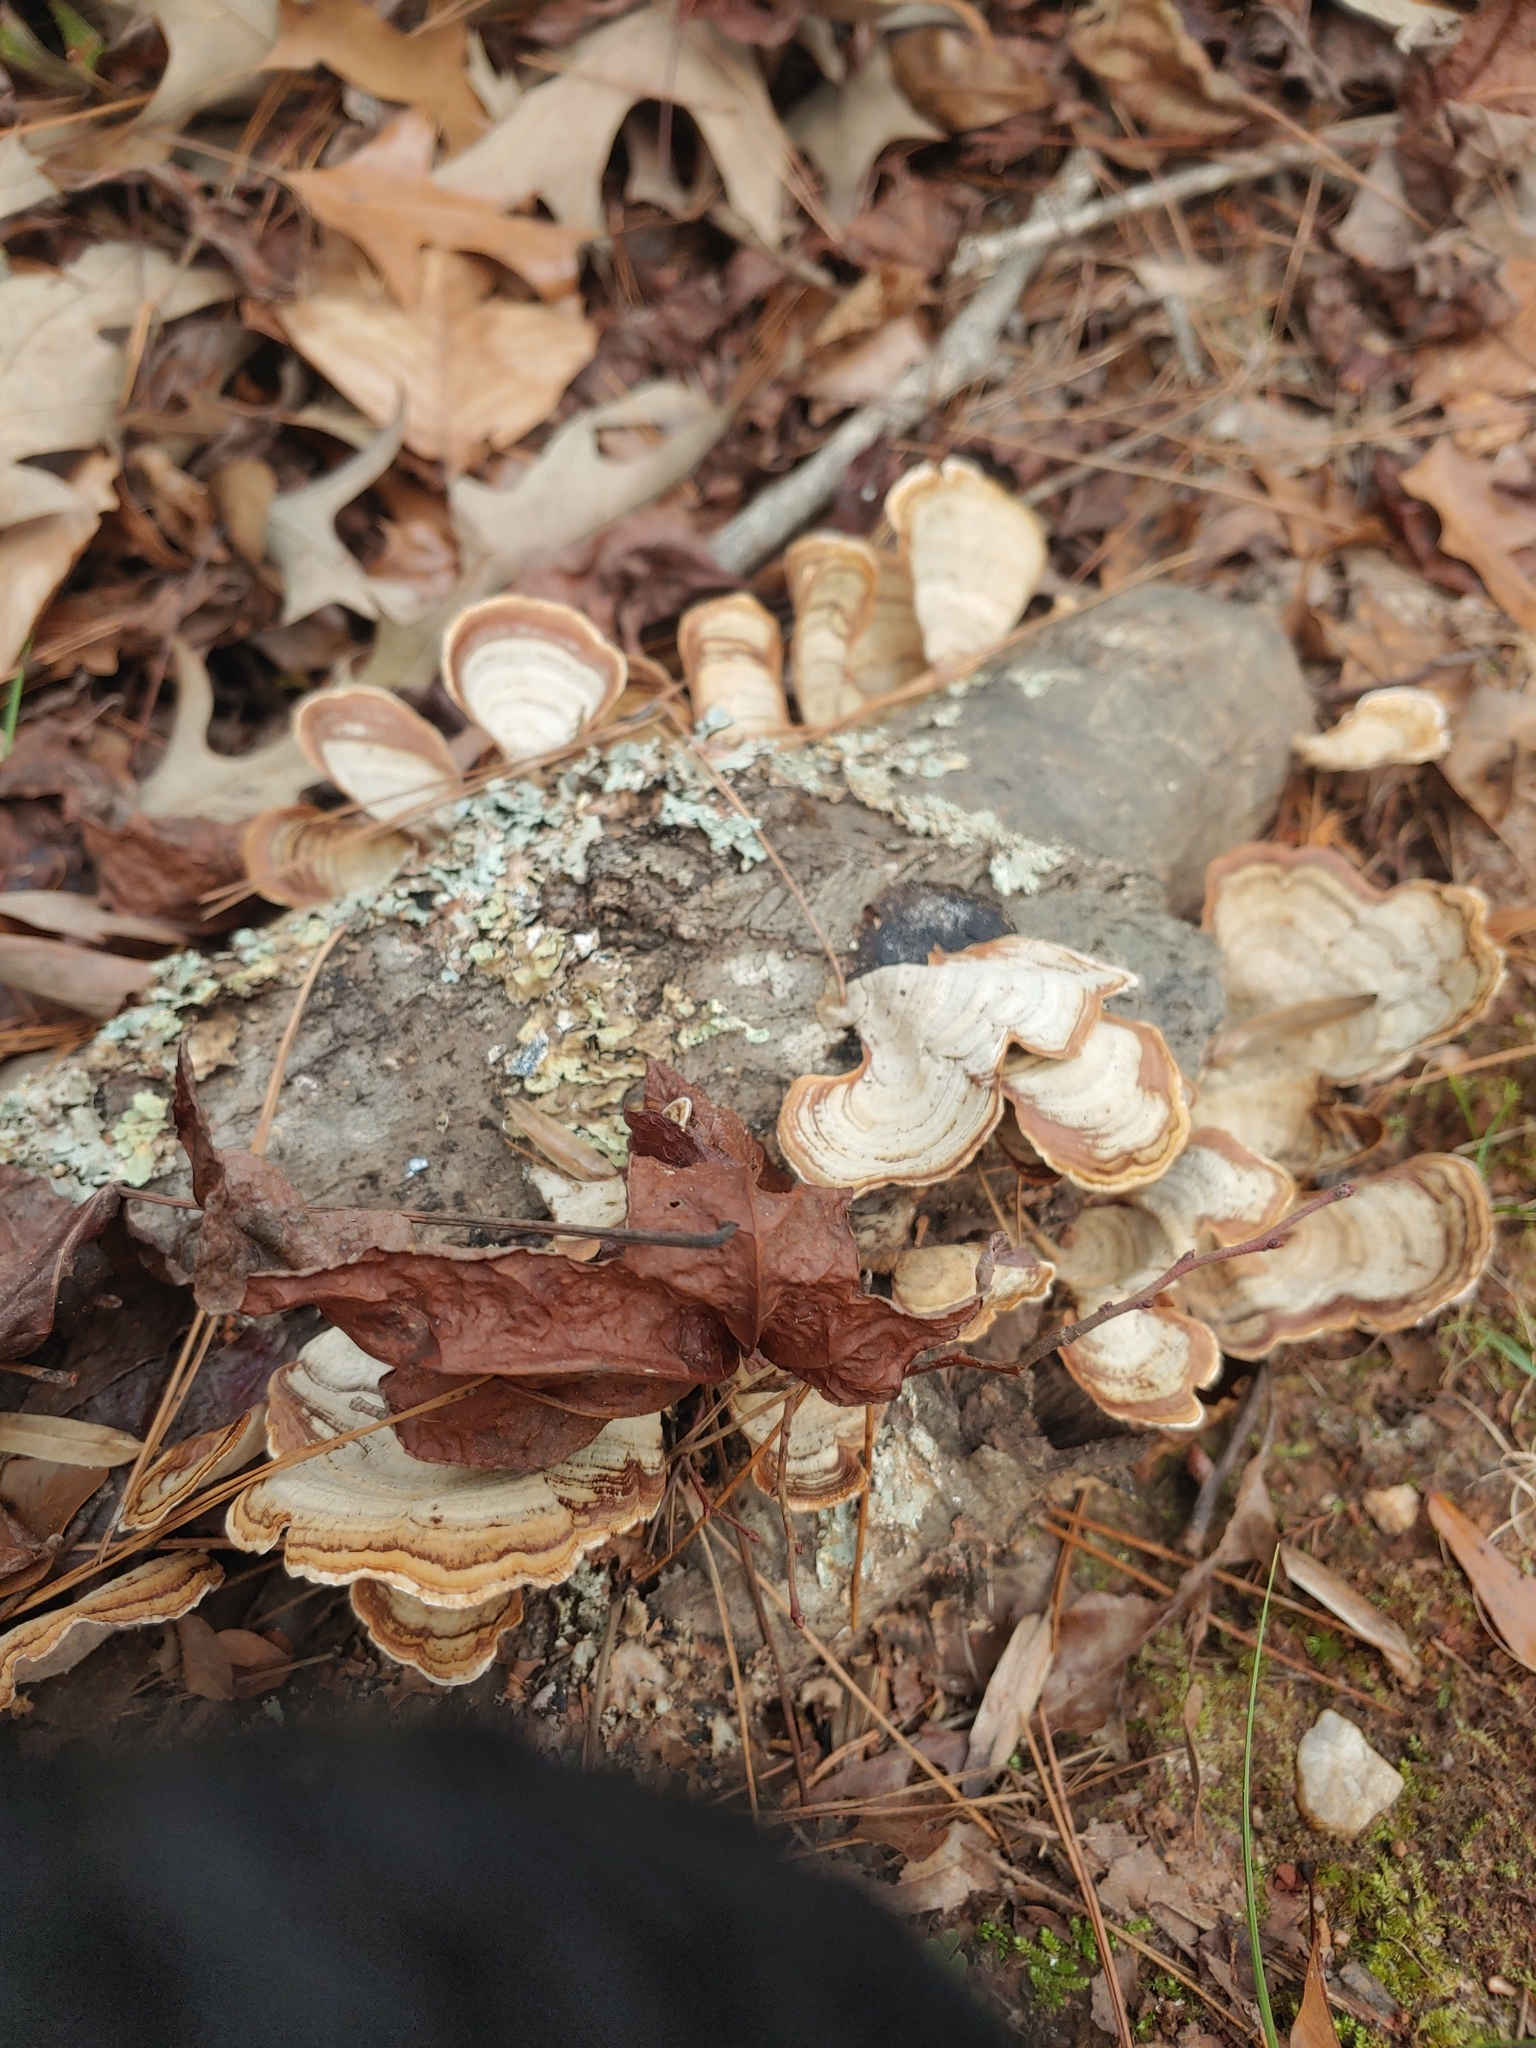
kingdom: Fungi
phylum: Basidiomycota
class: Agaricomycetes
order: Russulales
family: Stereaceae
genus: Stereum
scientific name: Stereum lobatum
